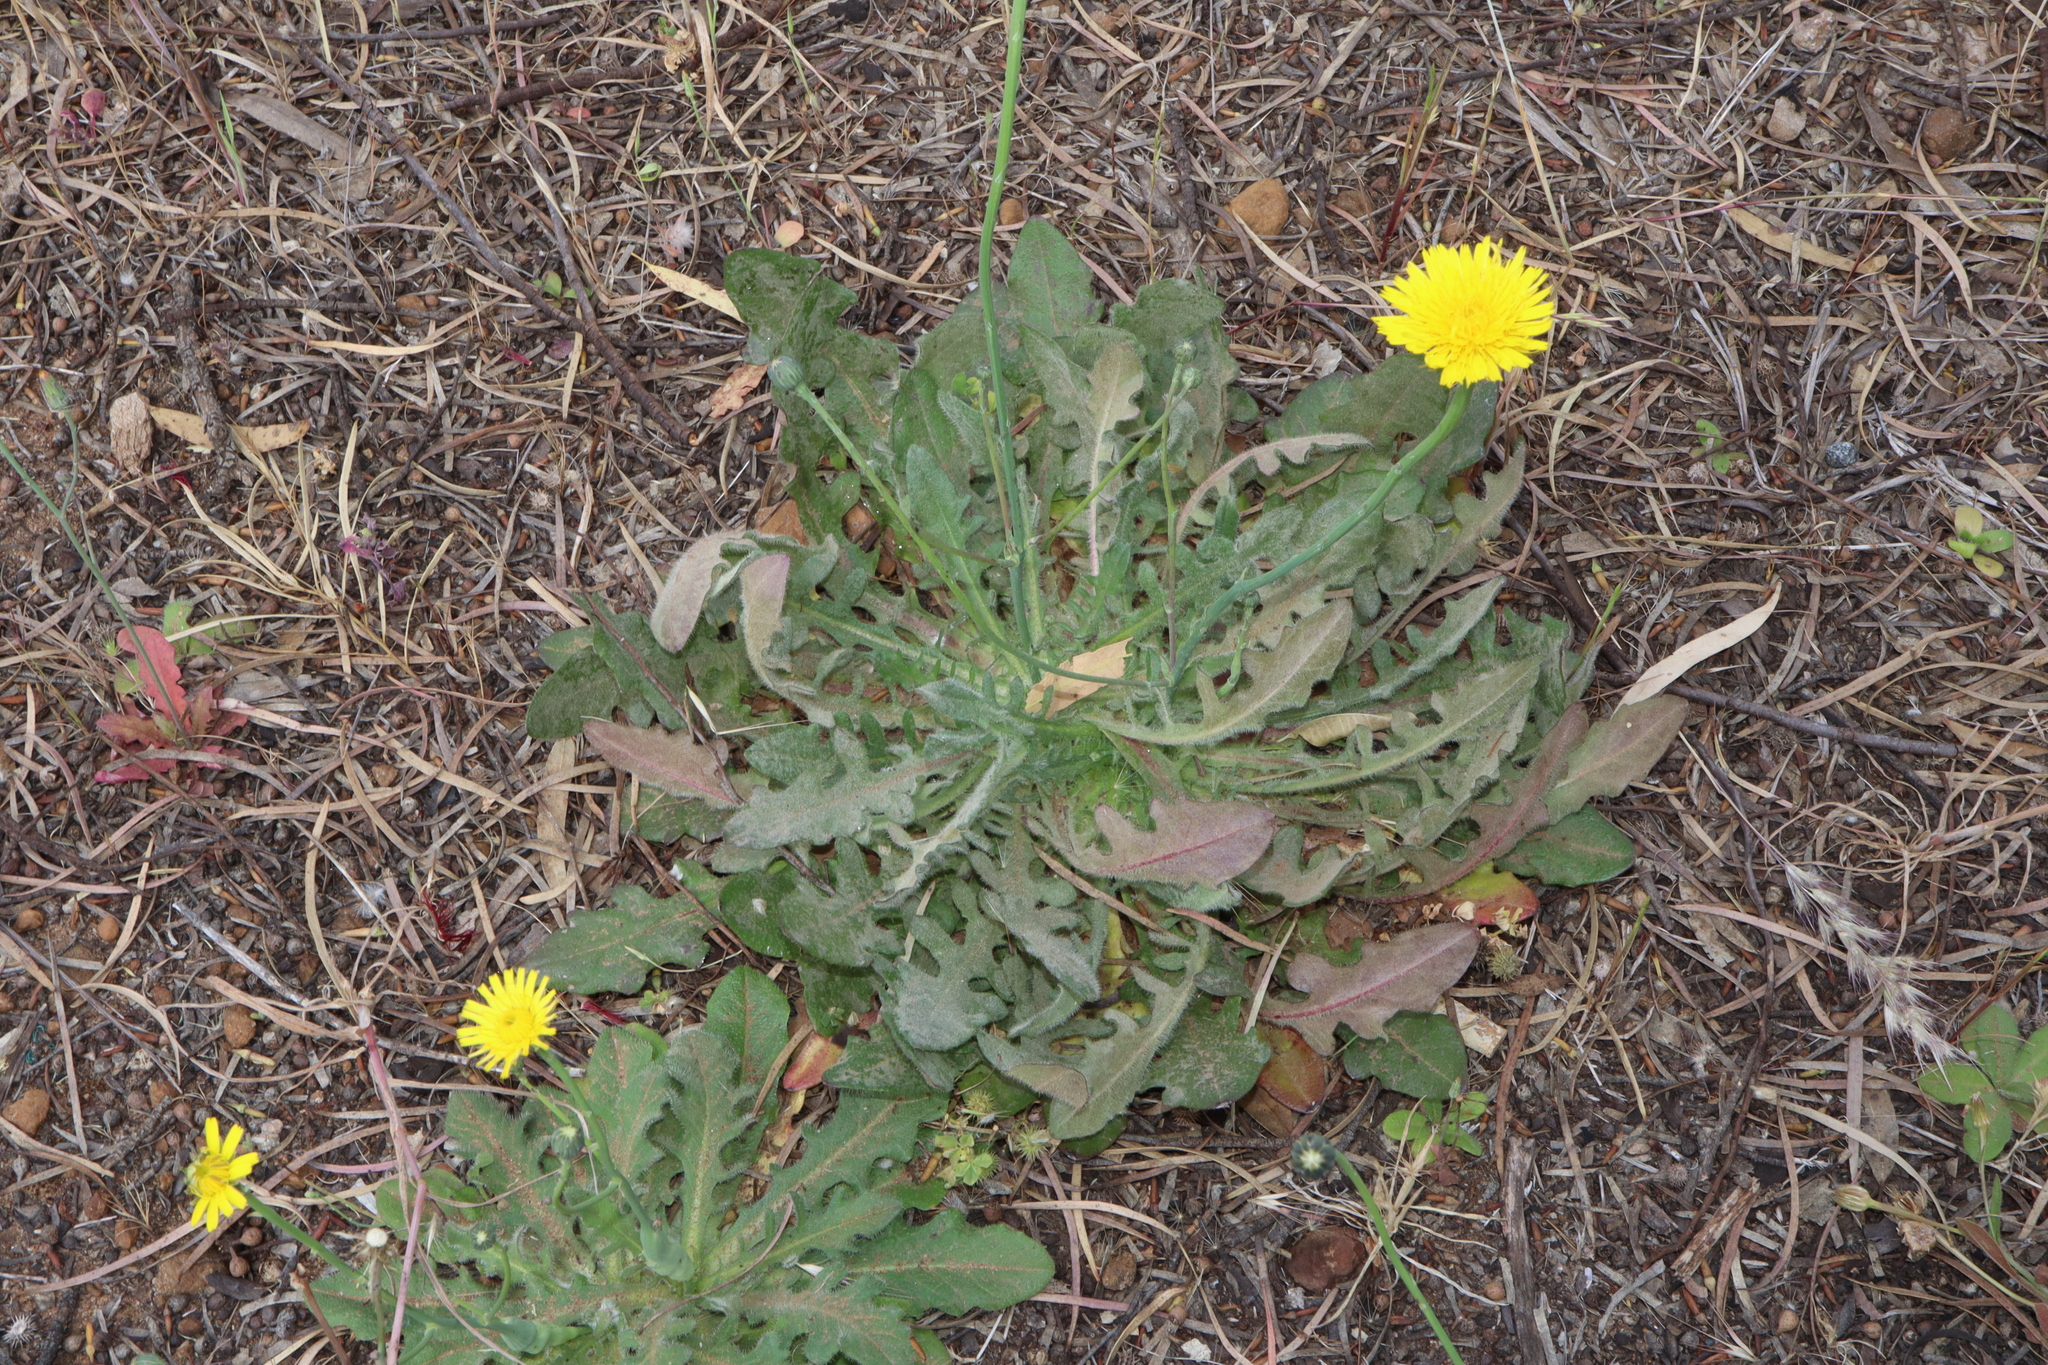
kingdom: Plantae
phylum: Tracheophyta
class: Magnoliopsida
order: Asterales
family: Asteraceae
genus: Hypochaeris
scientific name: Hypochaeris radicata
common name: Flatweed
